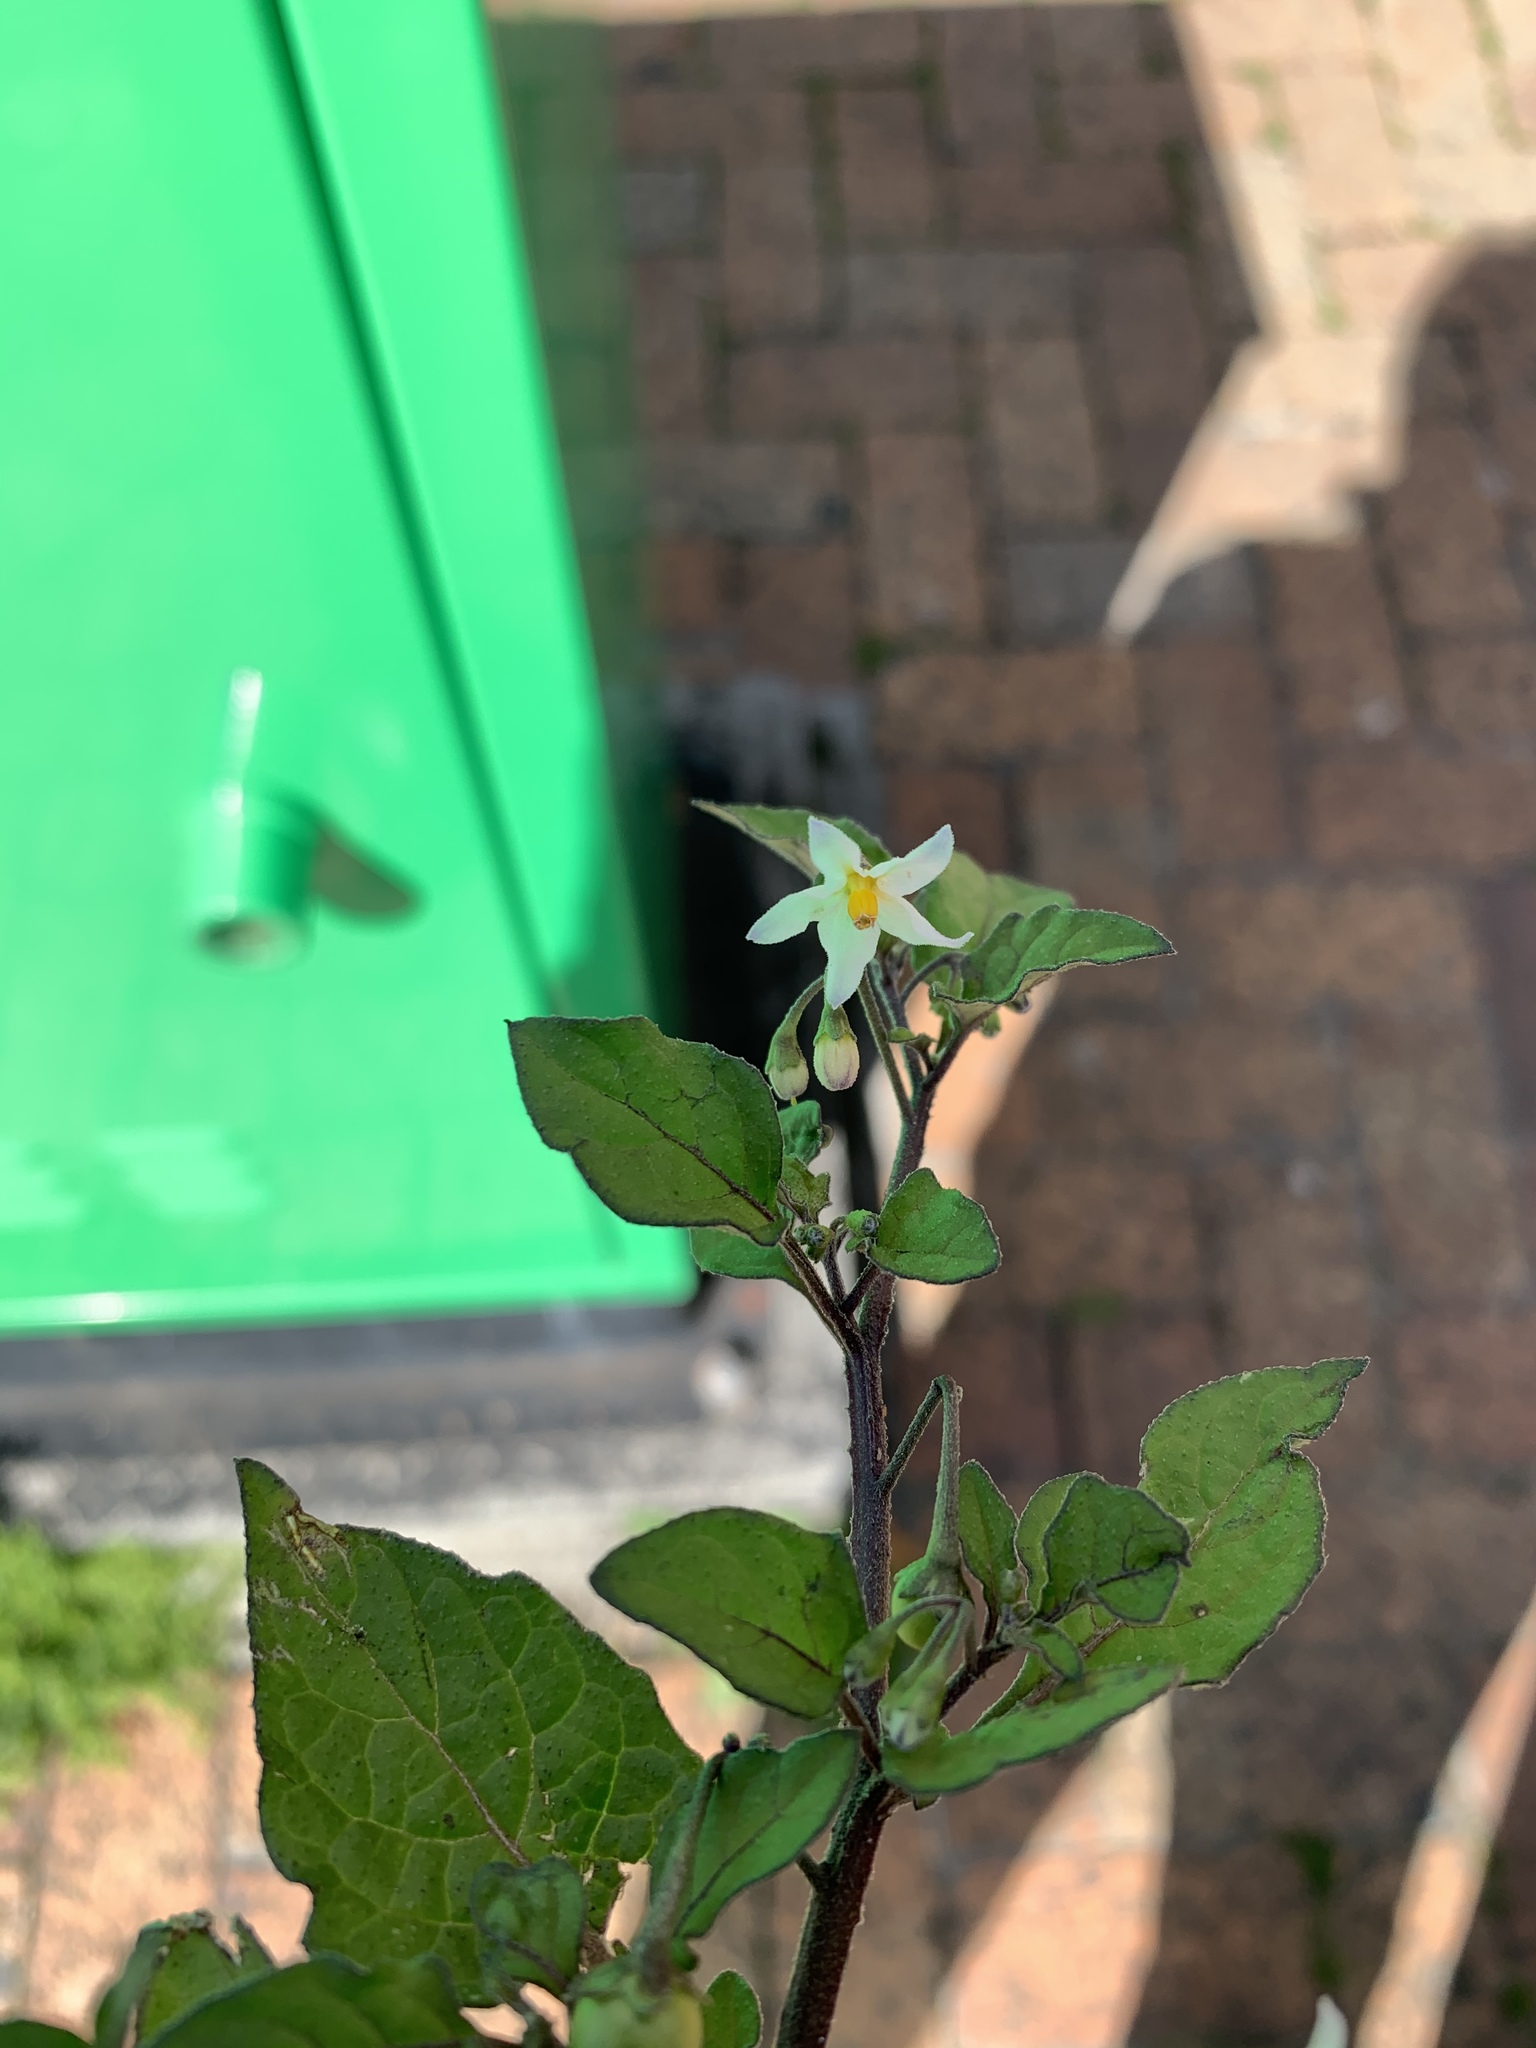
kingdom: Plantae
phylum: Tracheophyta
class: Magnoliopsida
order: Solanales
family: Solanaceae
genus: Solanum
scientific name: Solanum nigrum
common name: Black nightshade
